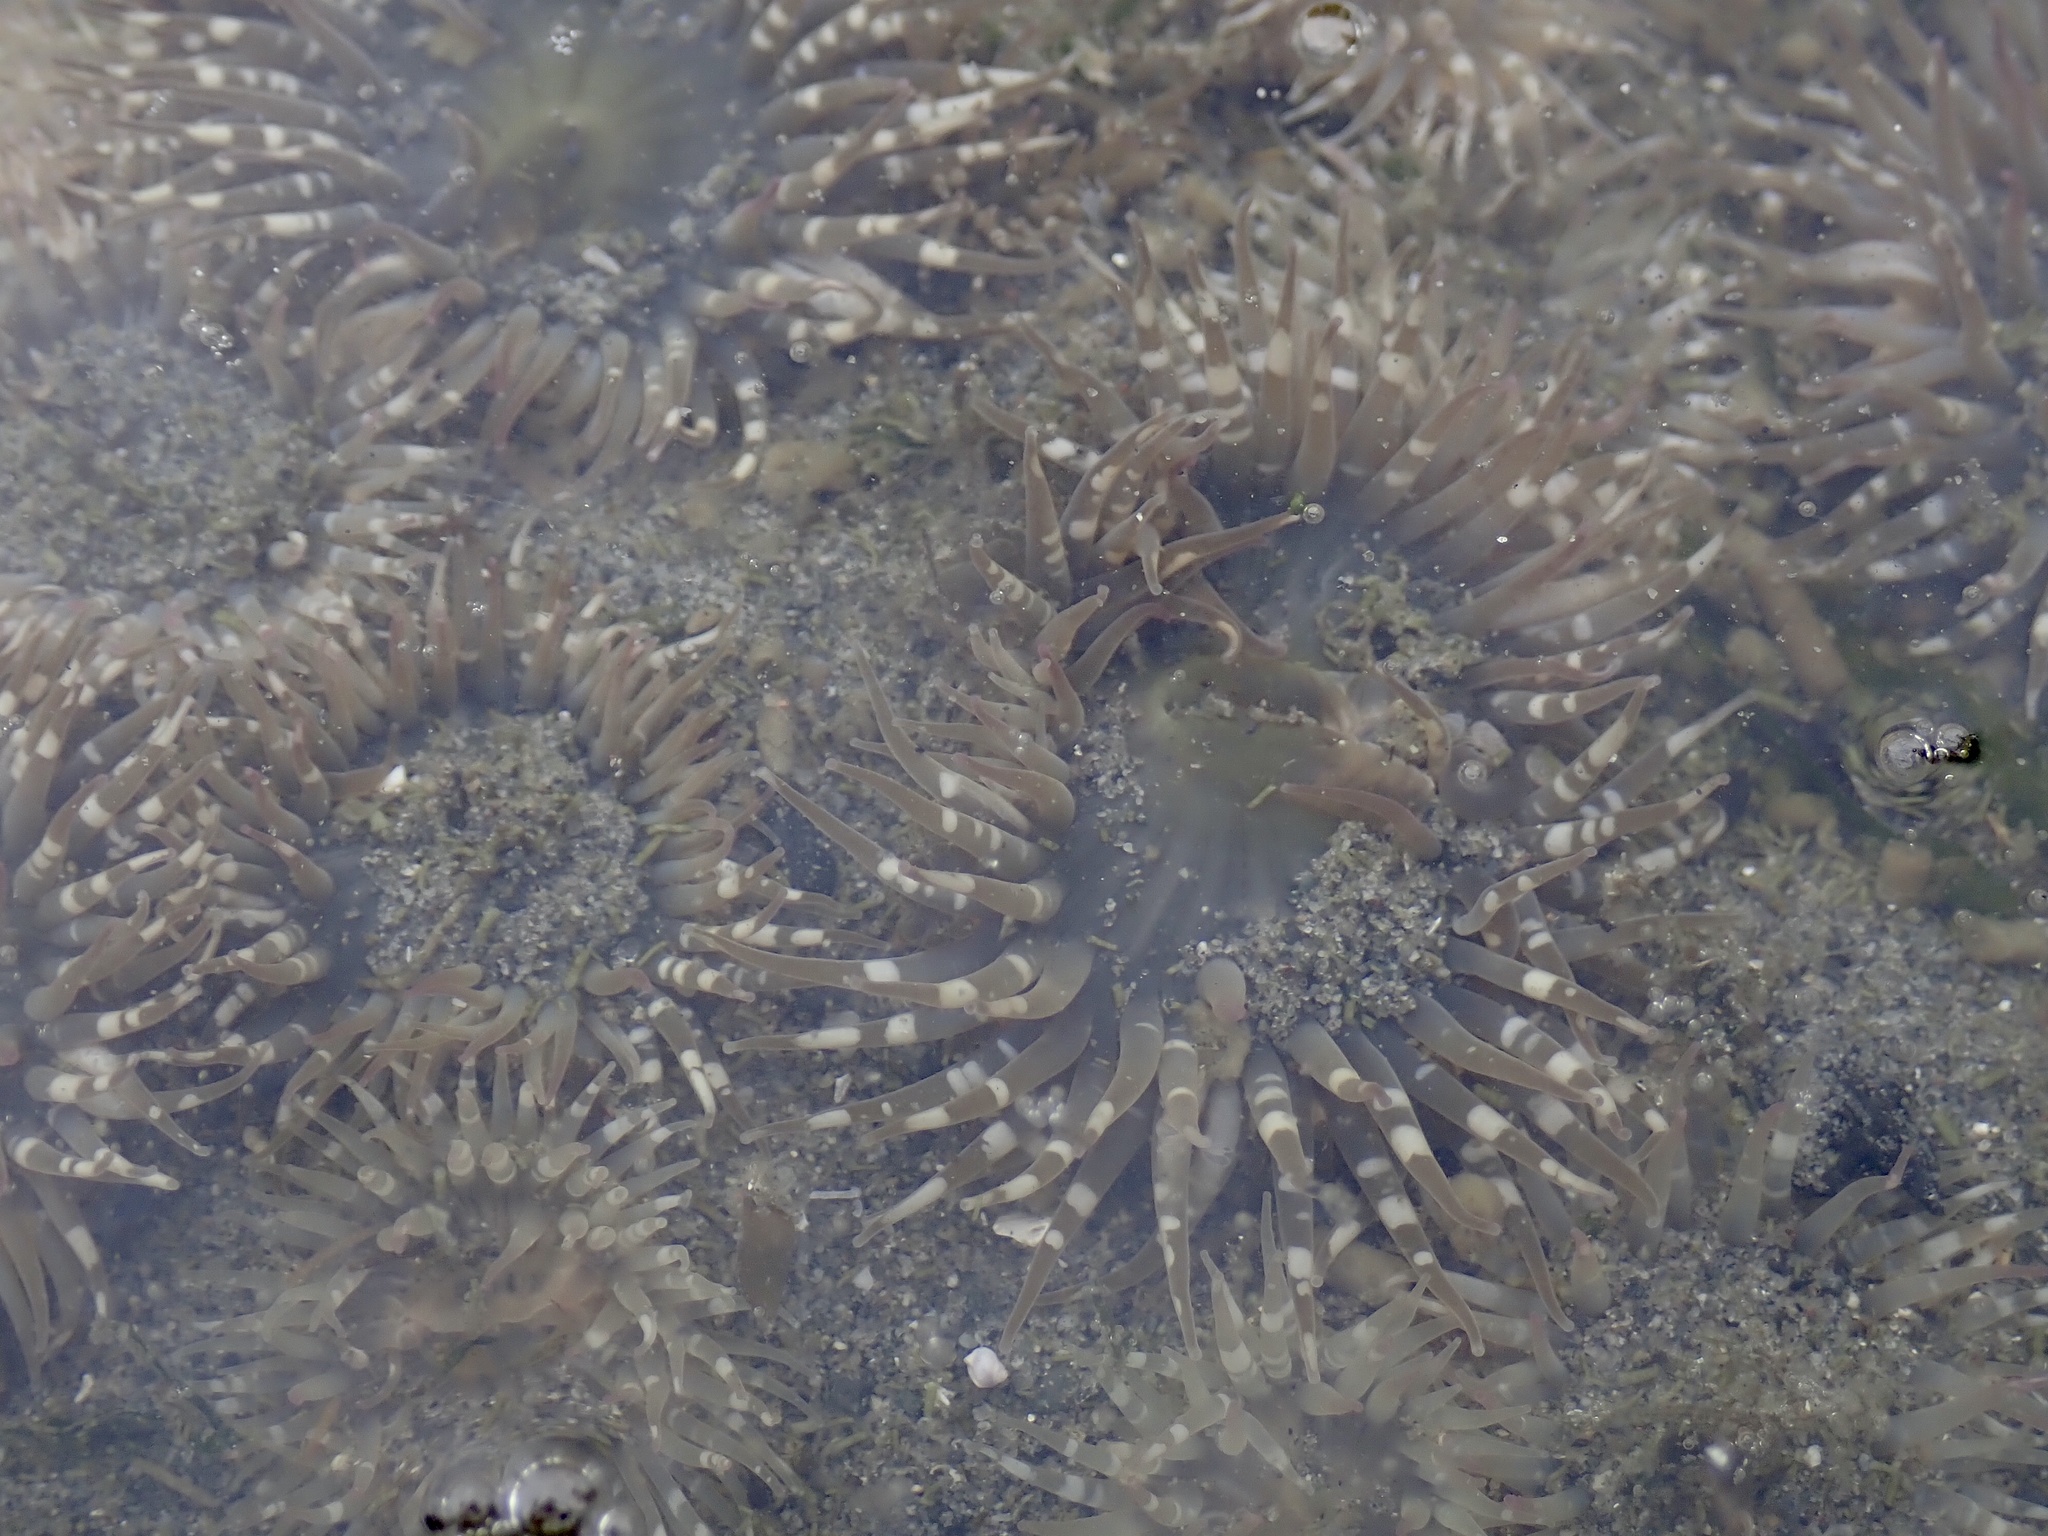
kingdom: Animalia
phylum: Cnidaria
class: Anthozoa
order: Actiniaria
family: Actiniidae
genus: Anthopleura
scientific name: Anthopleura elegantissima
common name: Clonal anemone
